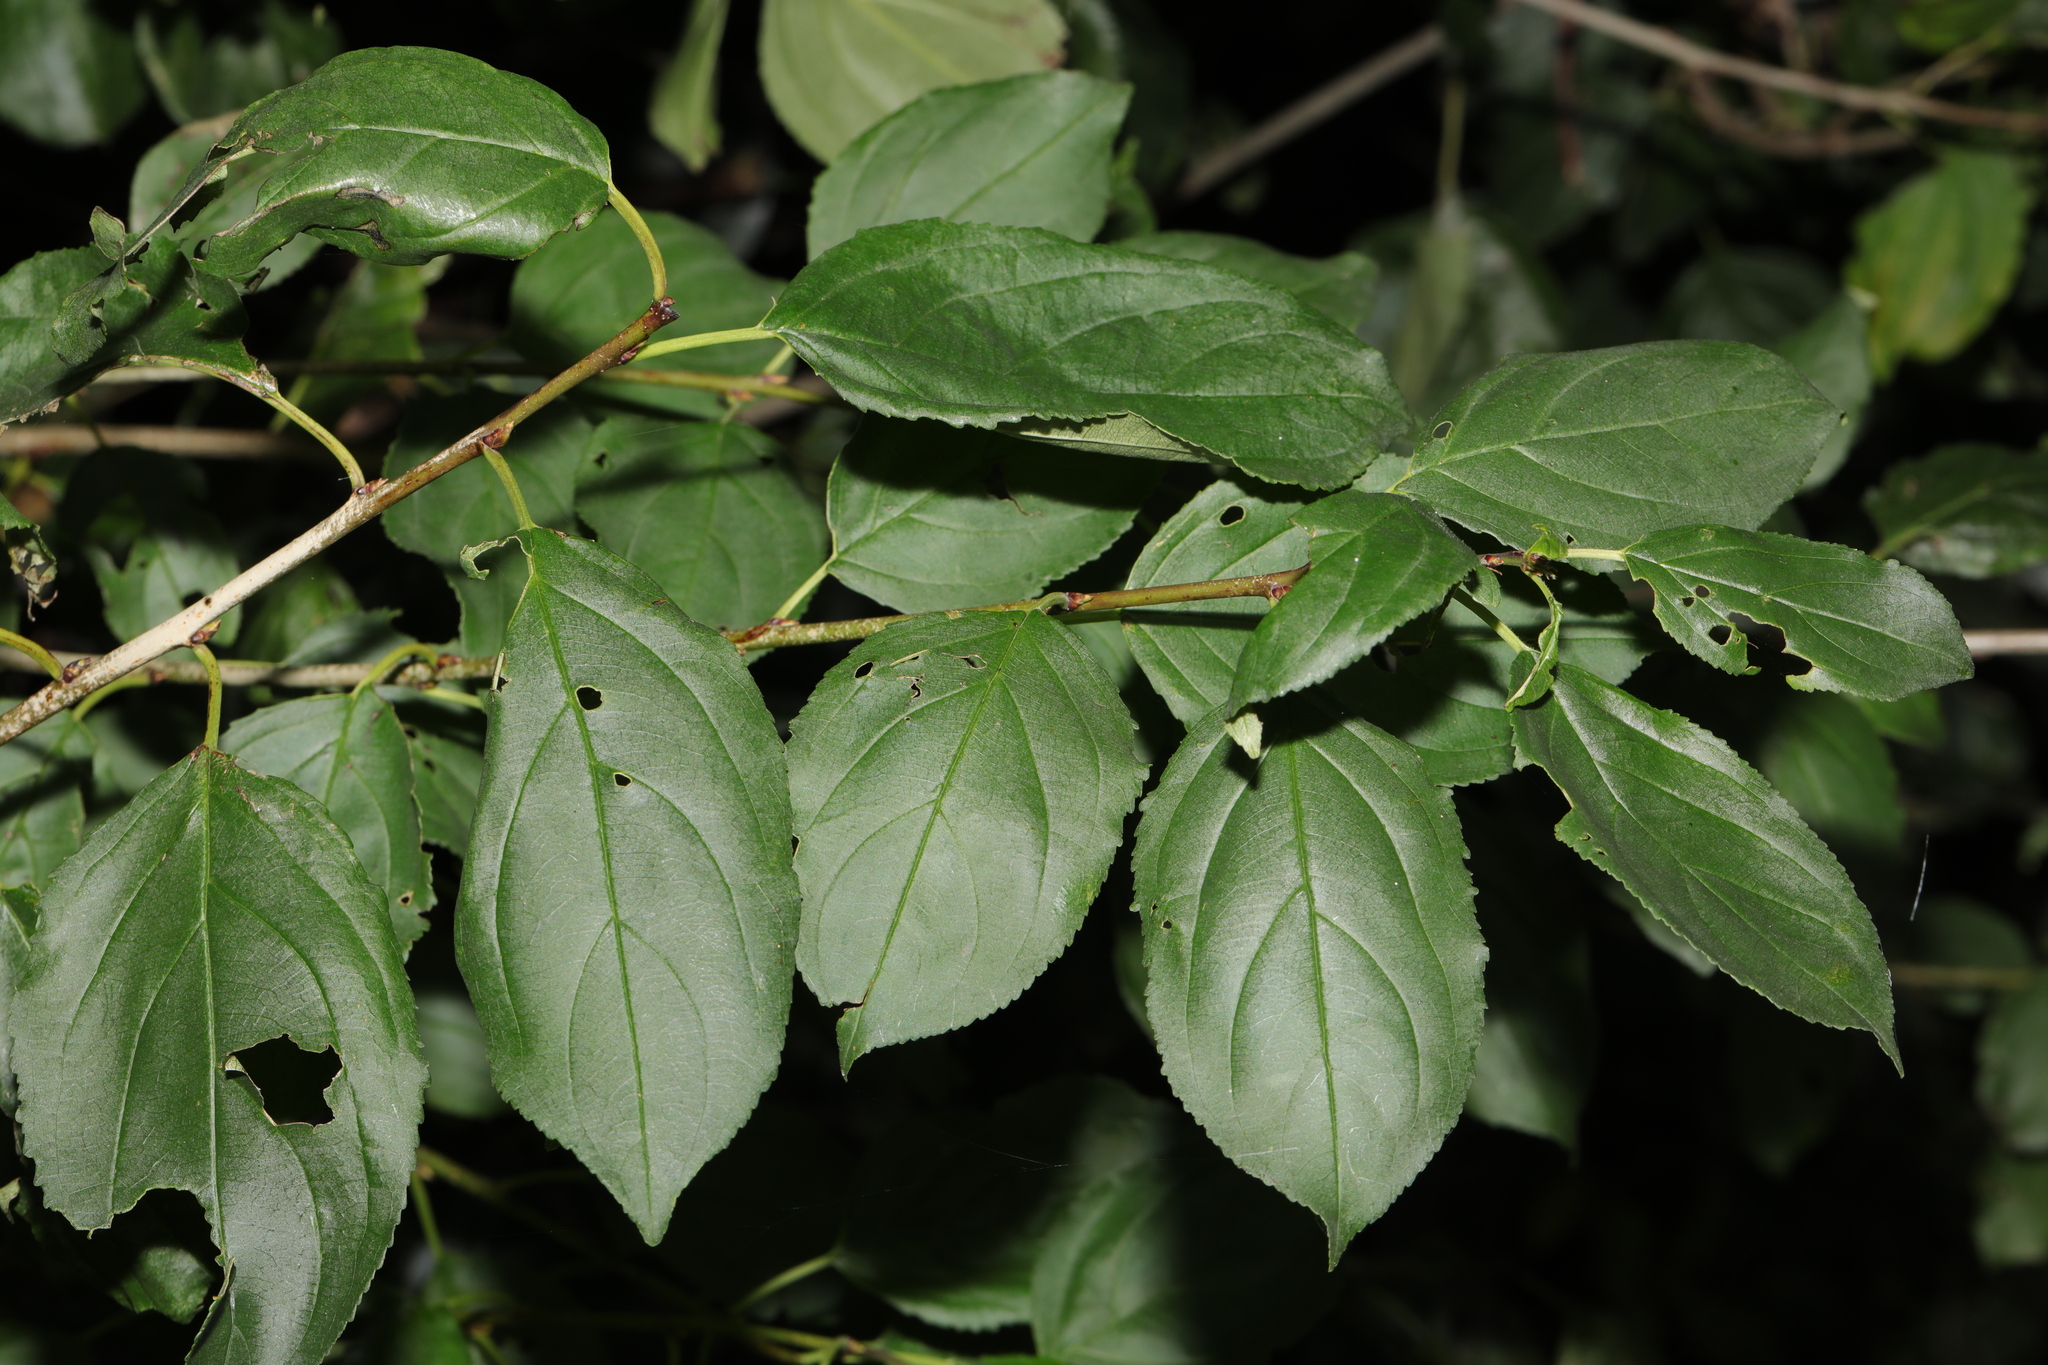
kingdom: Plantae
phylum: Tracheophyta
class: Magnoliopsida
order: Rosales
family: Rhamnaceae
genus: Rhamnus
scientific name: Rhamnus cathartica
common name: Common buckthorn
